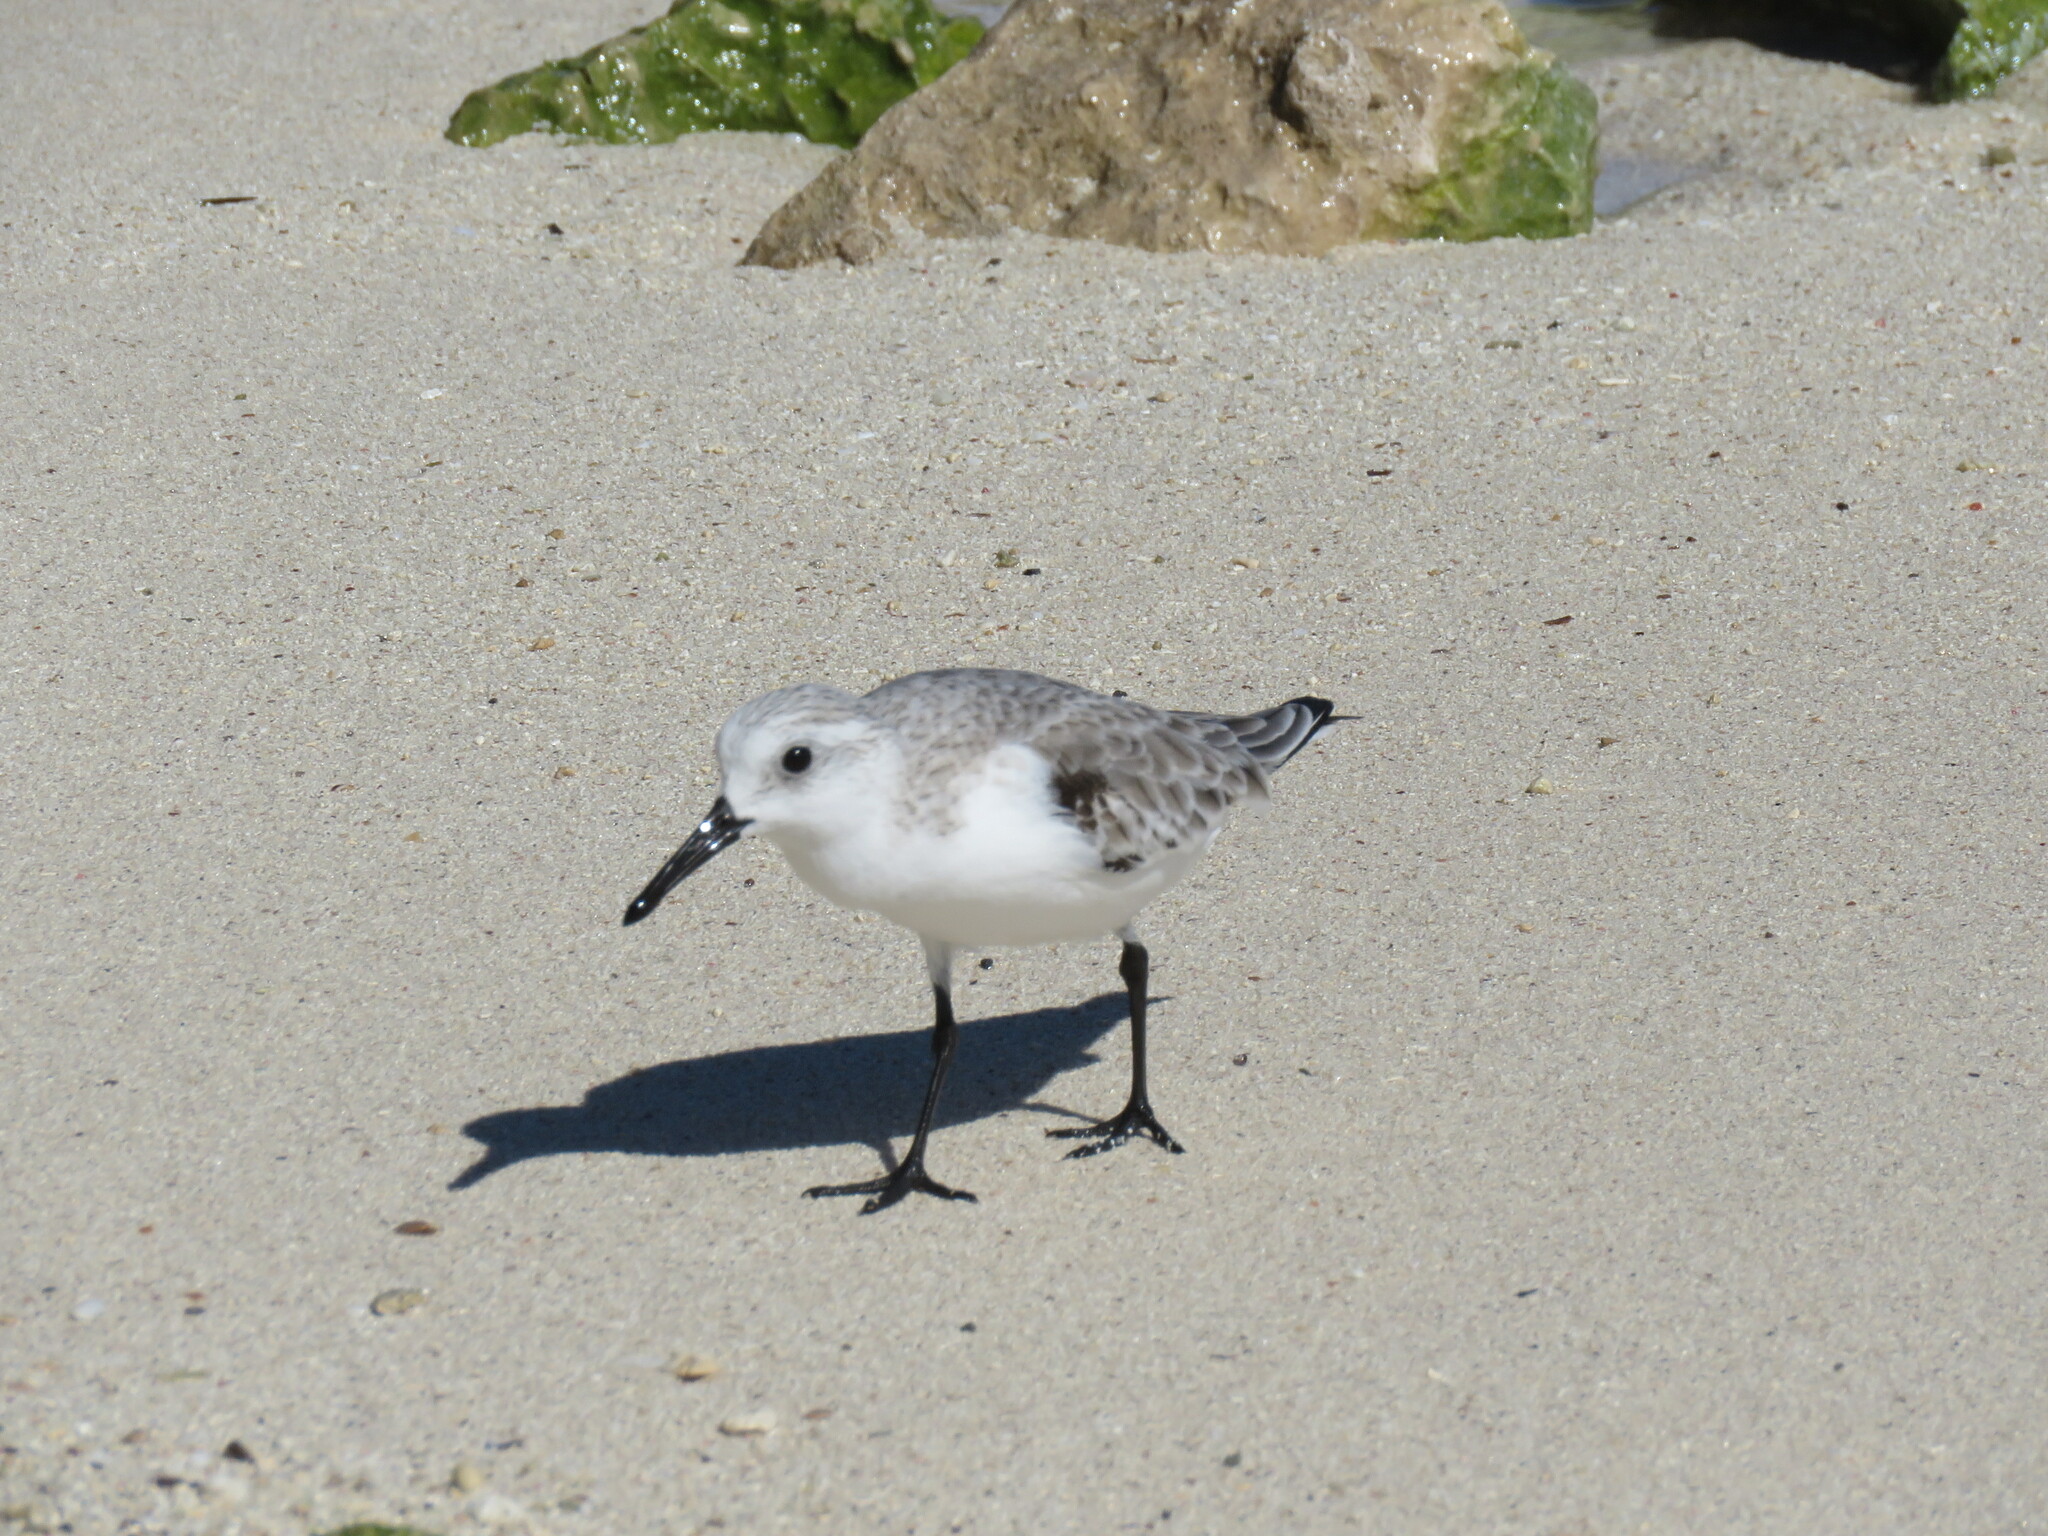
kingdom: Animalia
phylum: Chordata
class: Aves
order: Charadriiformes
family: Scolopacidae
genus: Calidris
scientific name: Calidris alba
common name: Sanderling
